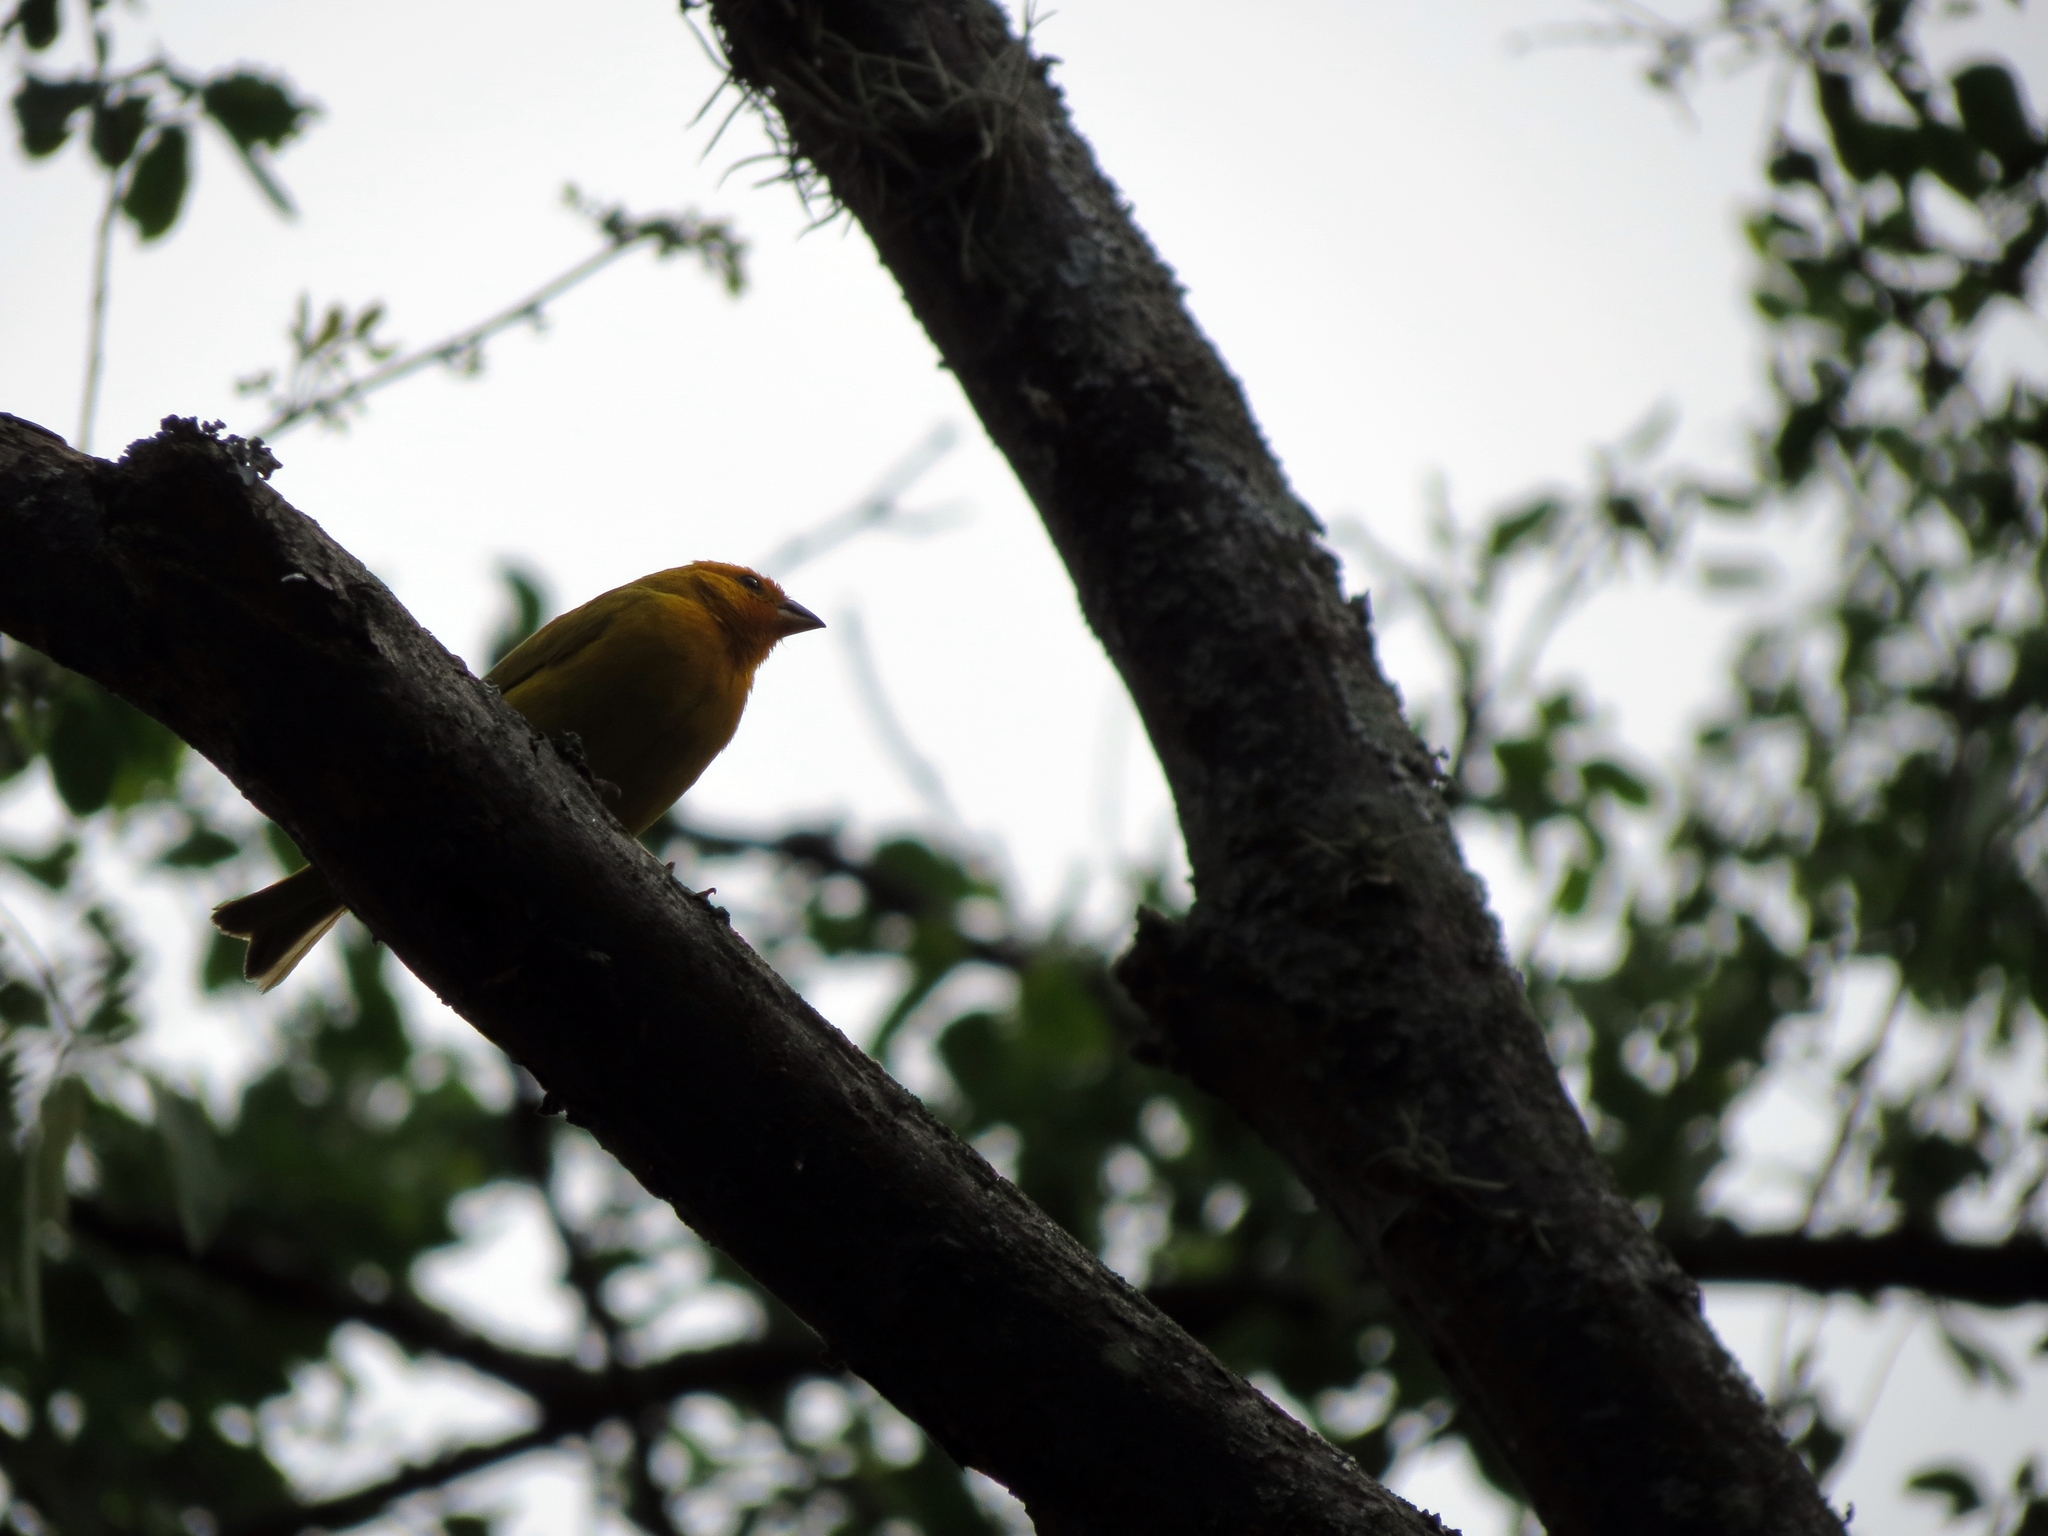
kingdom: Animalia
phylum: Chordata
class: Aves
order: Passeriformes
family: Thraupidae
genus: Sicalis
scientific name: Sicalis flaveola
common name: Saffron finch
